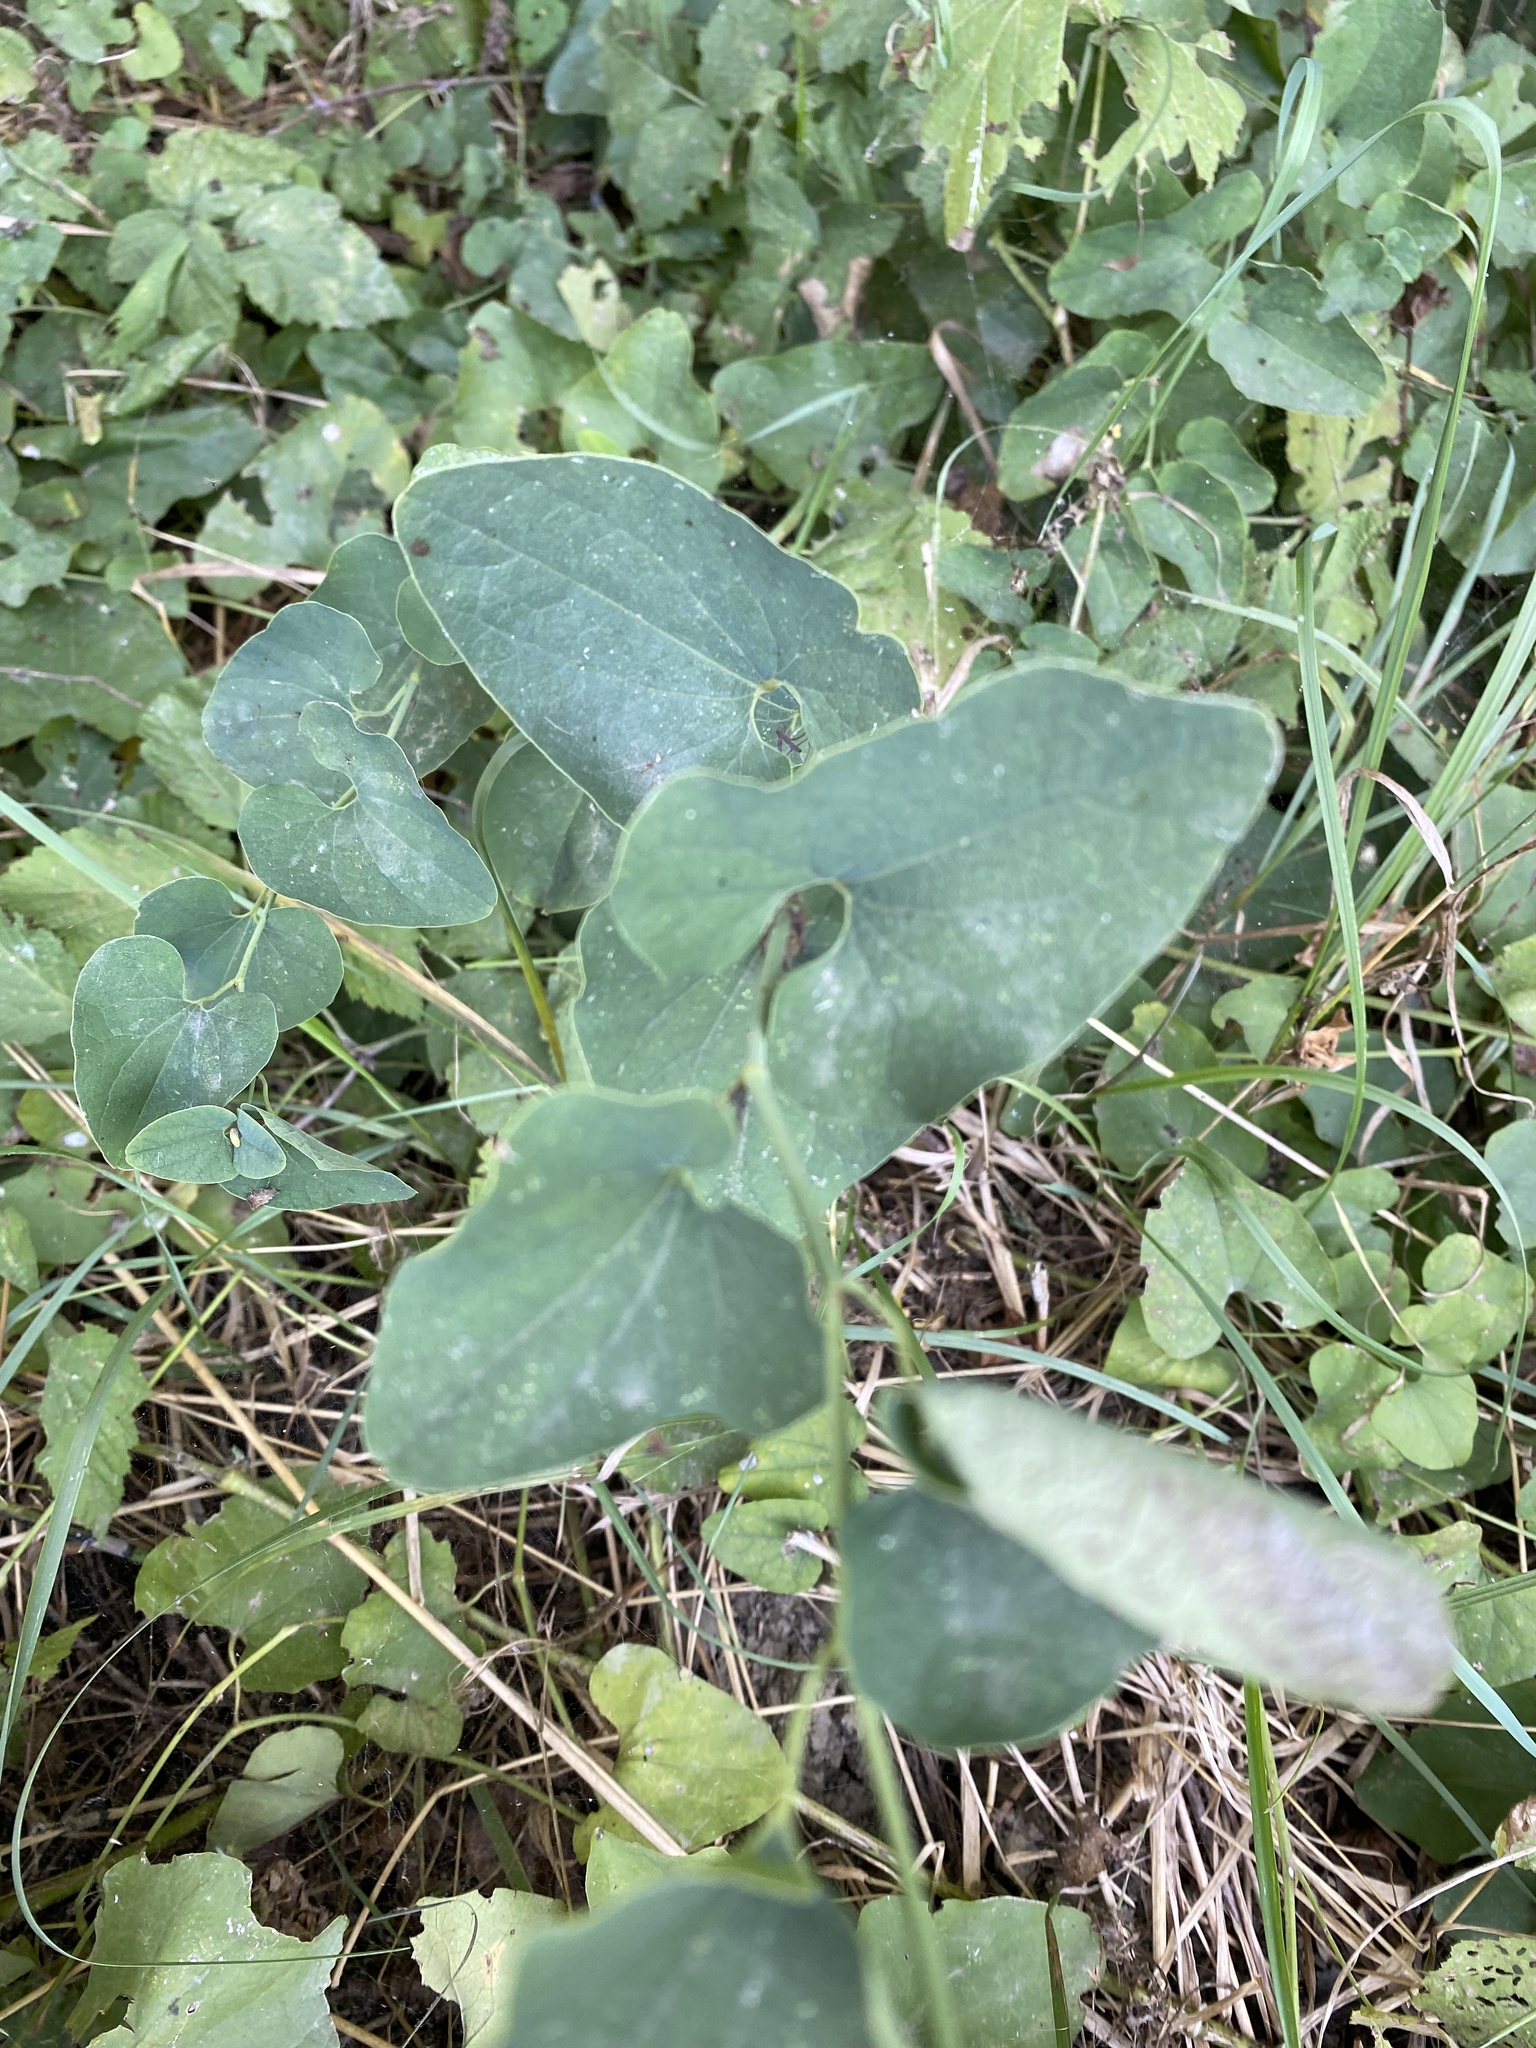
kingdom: Plantae
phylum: Tracheophyta
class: Magnoliopsida
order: Piperales
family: Aristolochiaceae
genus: Aristolochia
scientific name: Aristolochia clematitis
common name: Birthwort
